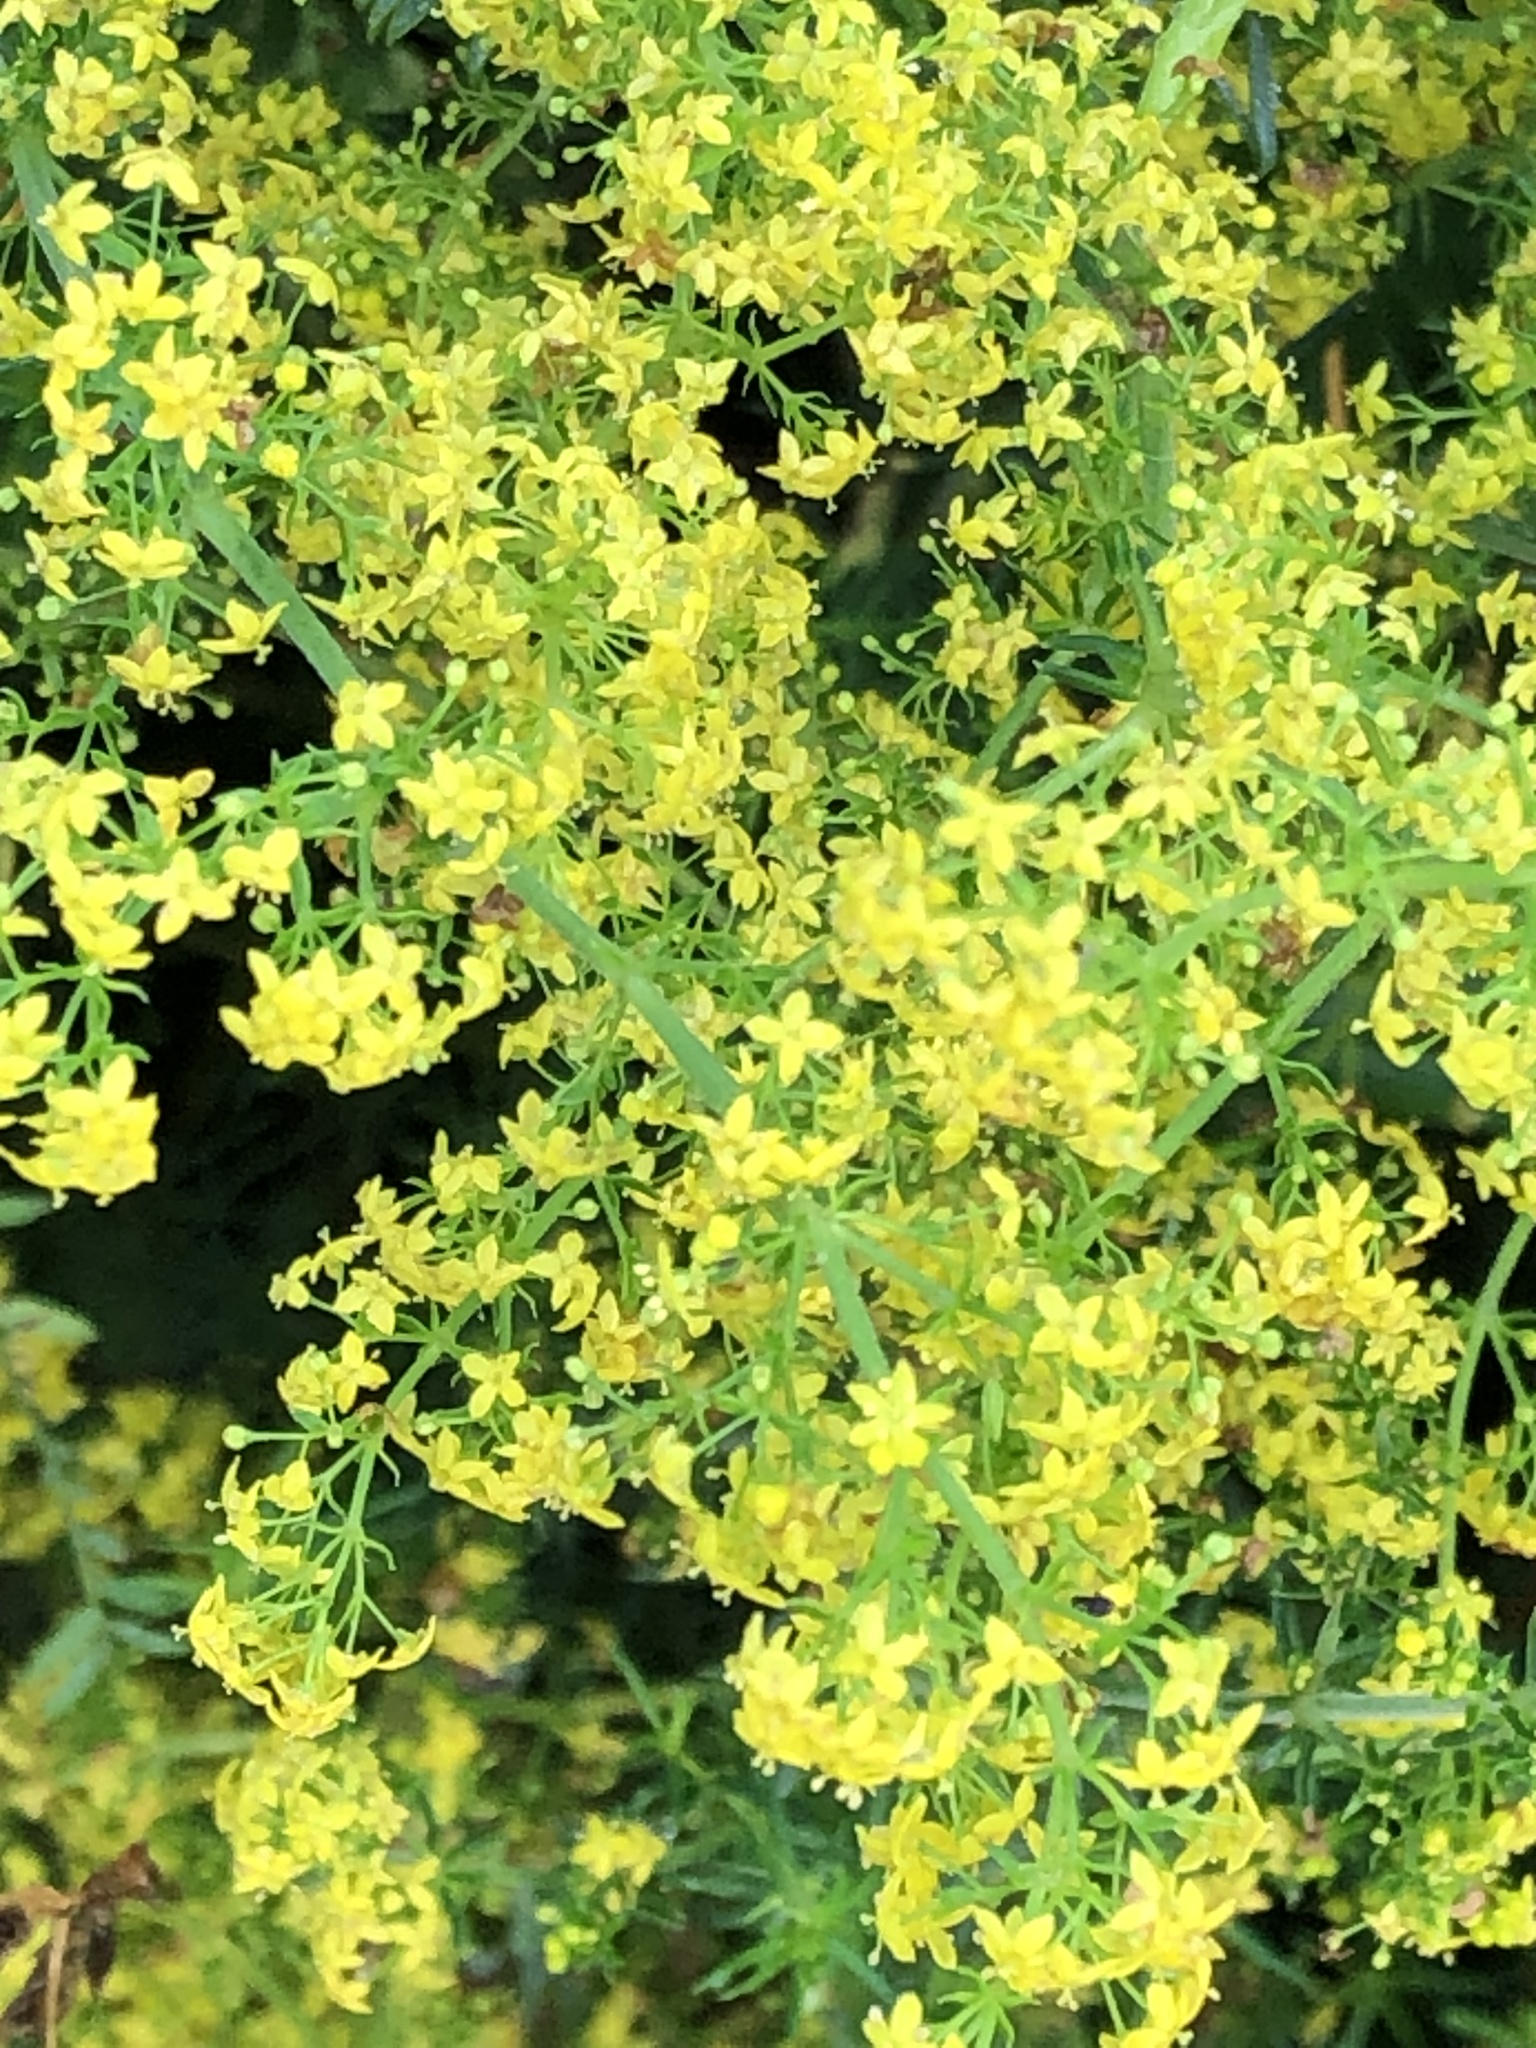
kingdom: Plantae
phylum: Tracheophyta
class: Magnoliopsida
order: Gentianales
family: Rubiaceae
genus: Galium
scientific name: Galium verum
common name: Lady's bedstraw
